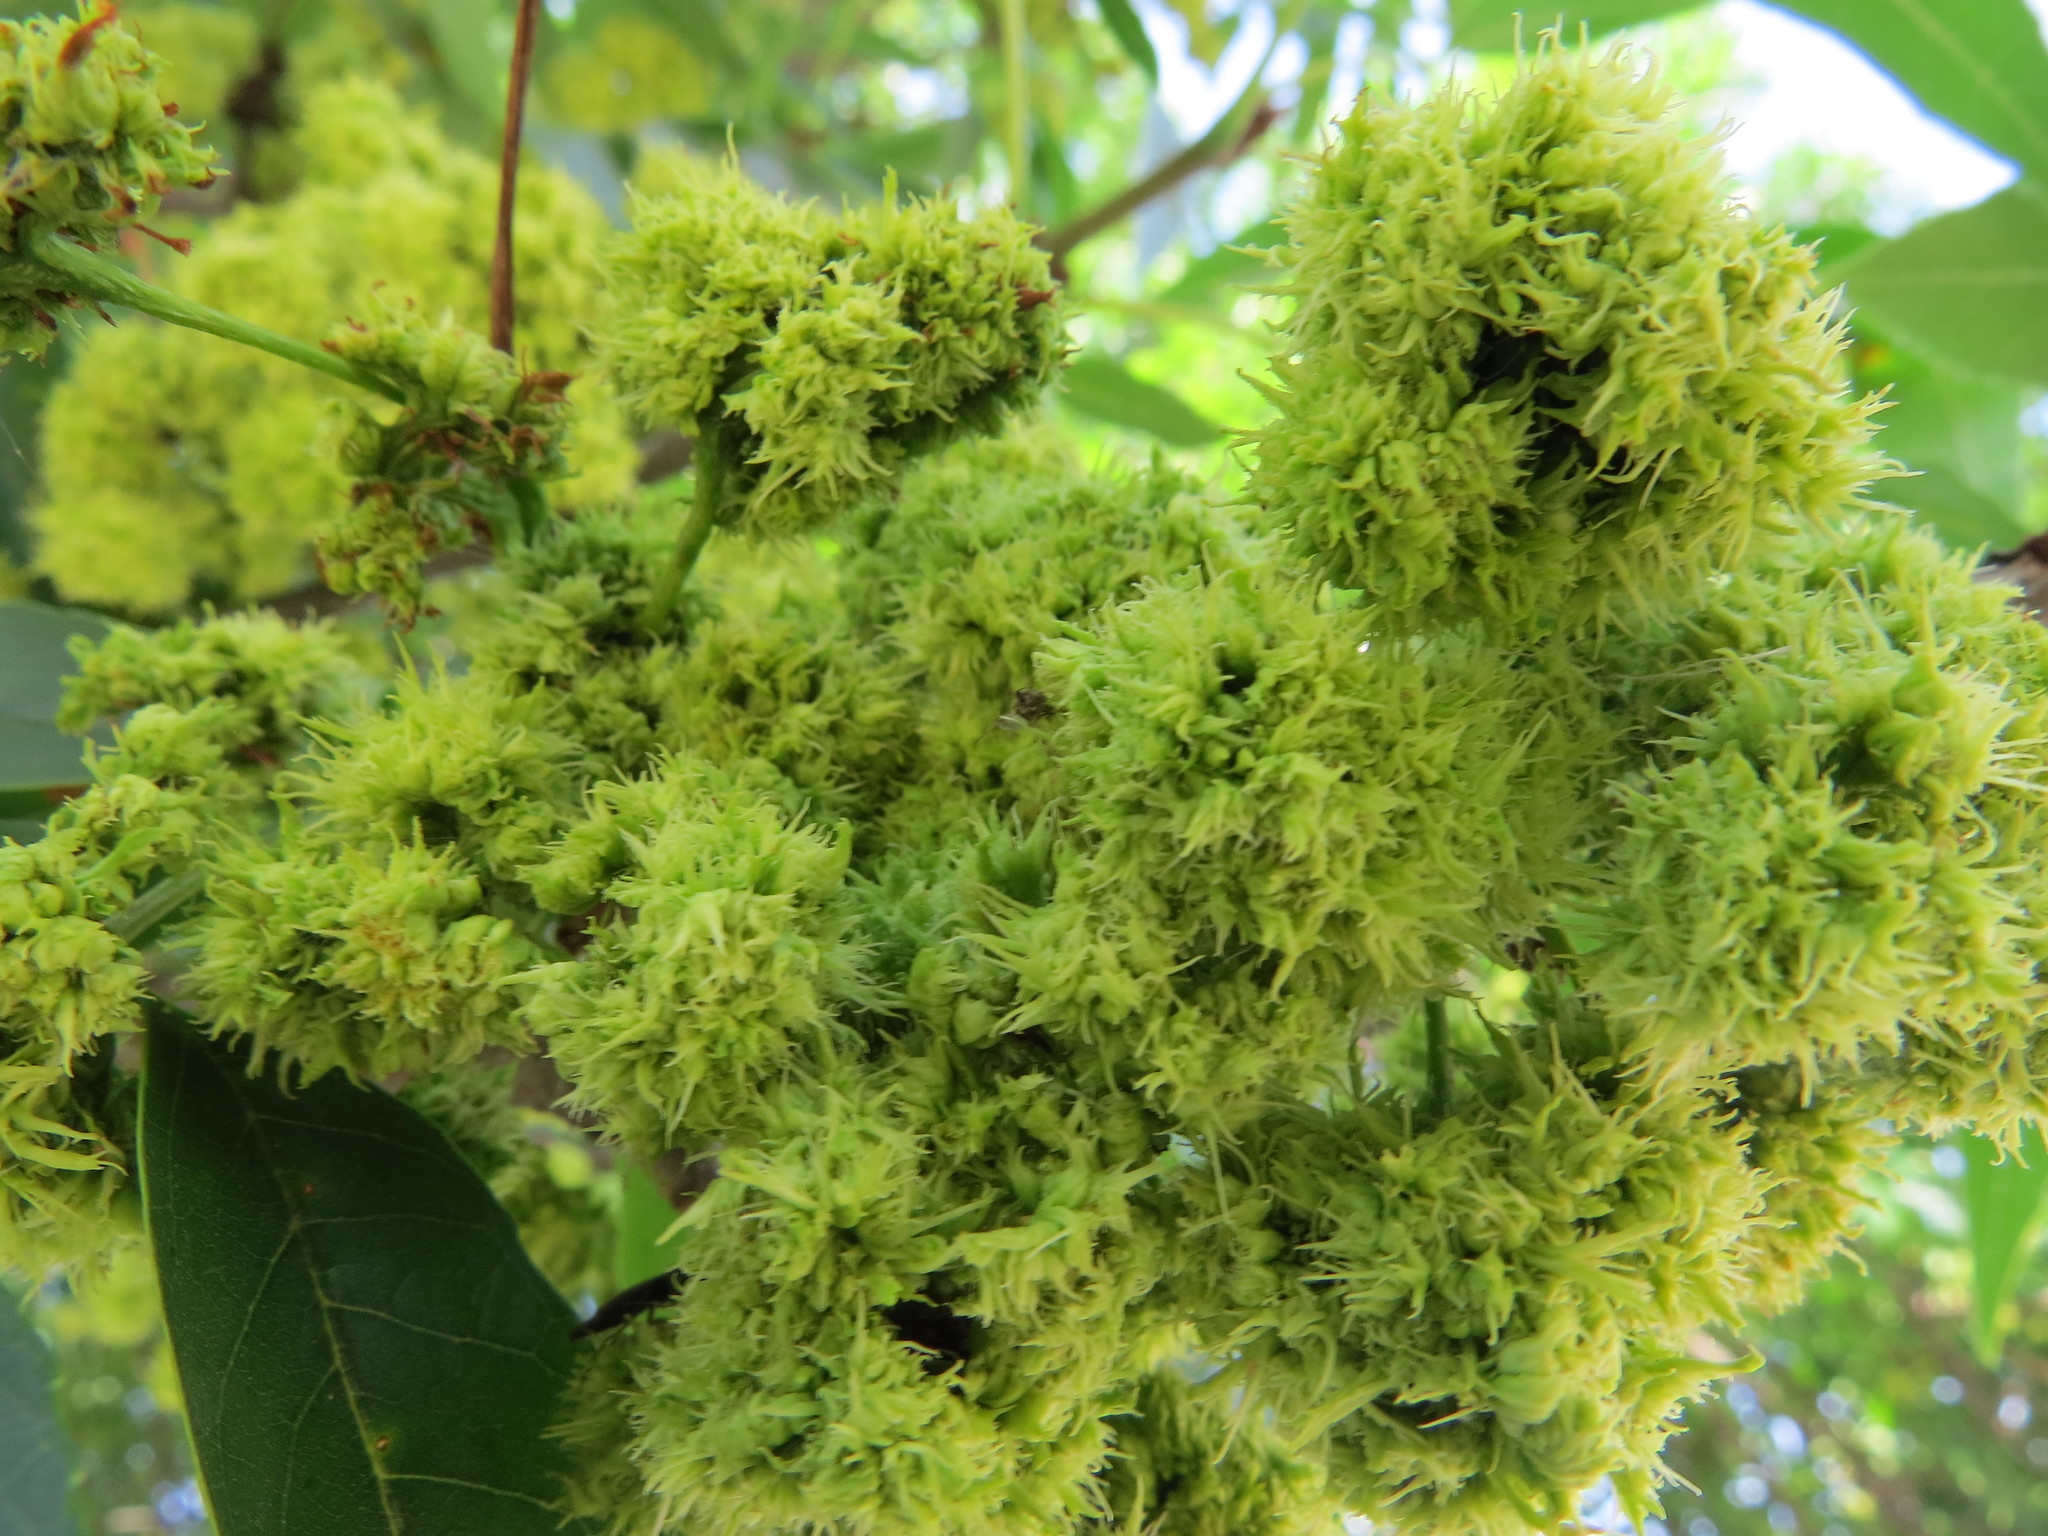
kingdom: Animalia
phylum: Arthropoda
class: Arachnida
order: Trombidiformes
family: Eriophyidae
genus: Aceria
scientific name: Aceria fraxiniflora
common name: Ash flower gall mite
